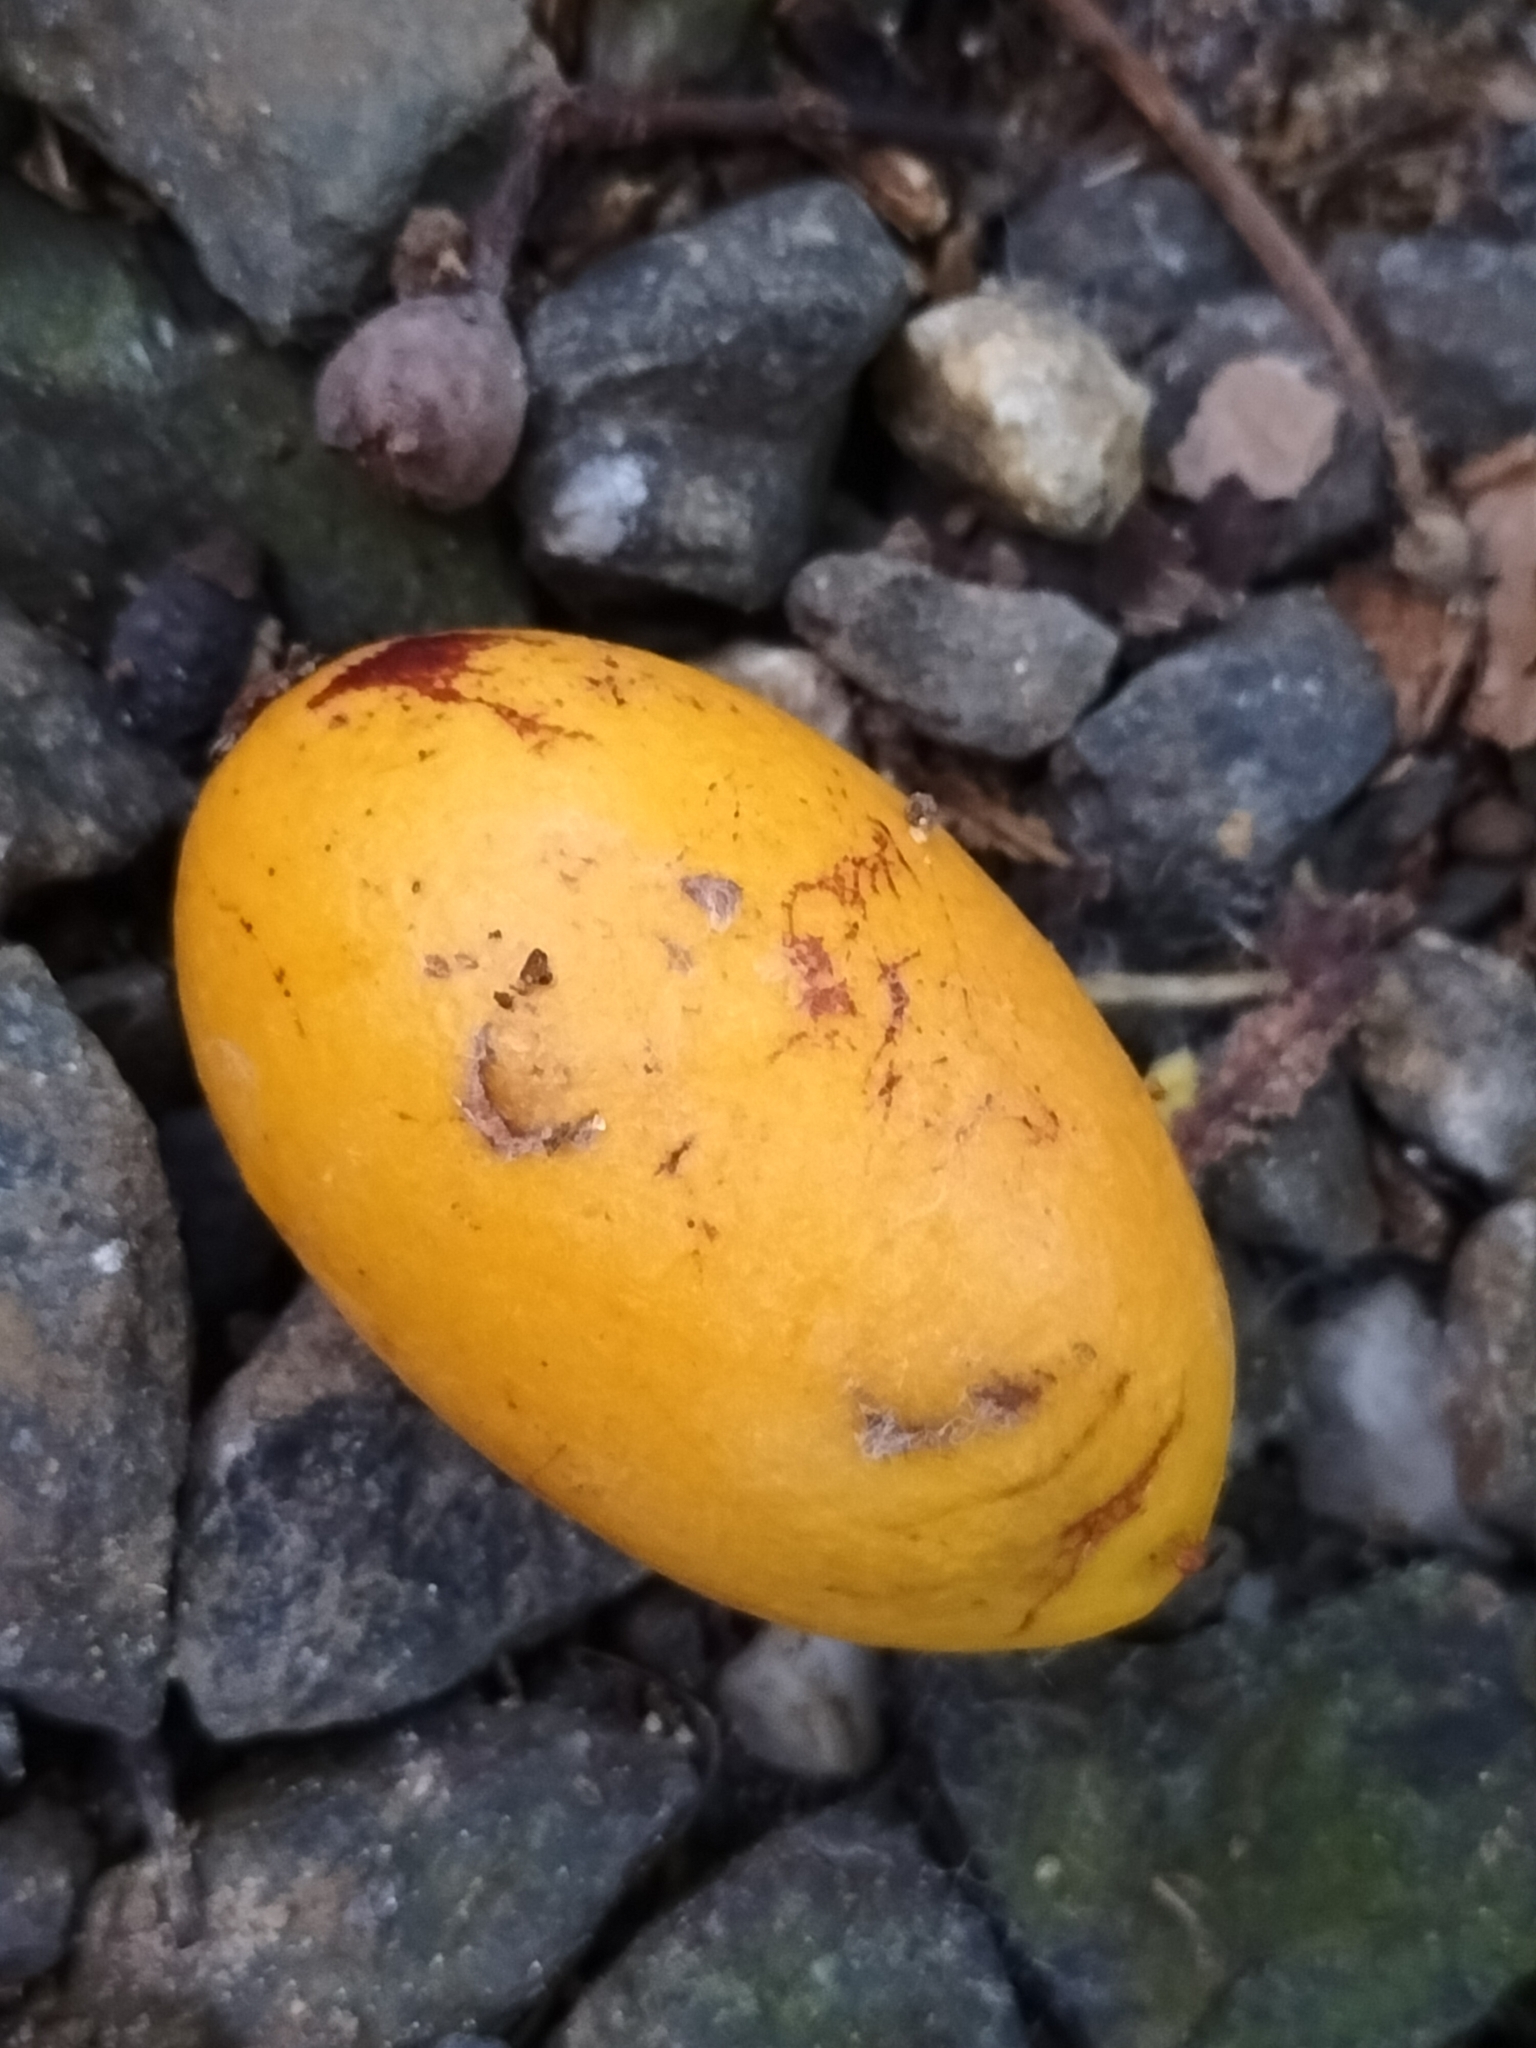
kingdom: Plantae
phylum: Tracheophyta
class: Magnoliopsida
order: Laurales
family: Lauraceae
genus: Endiandra
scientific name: Endiandra microneura
